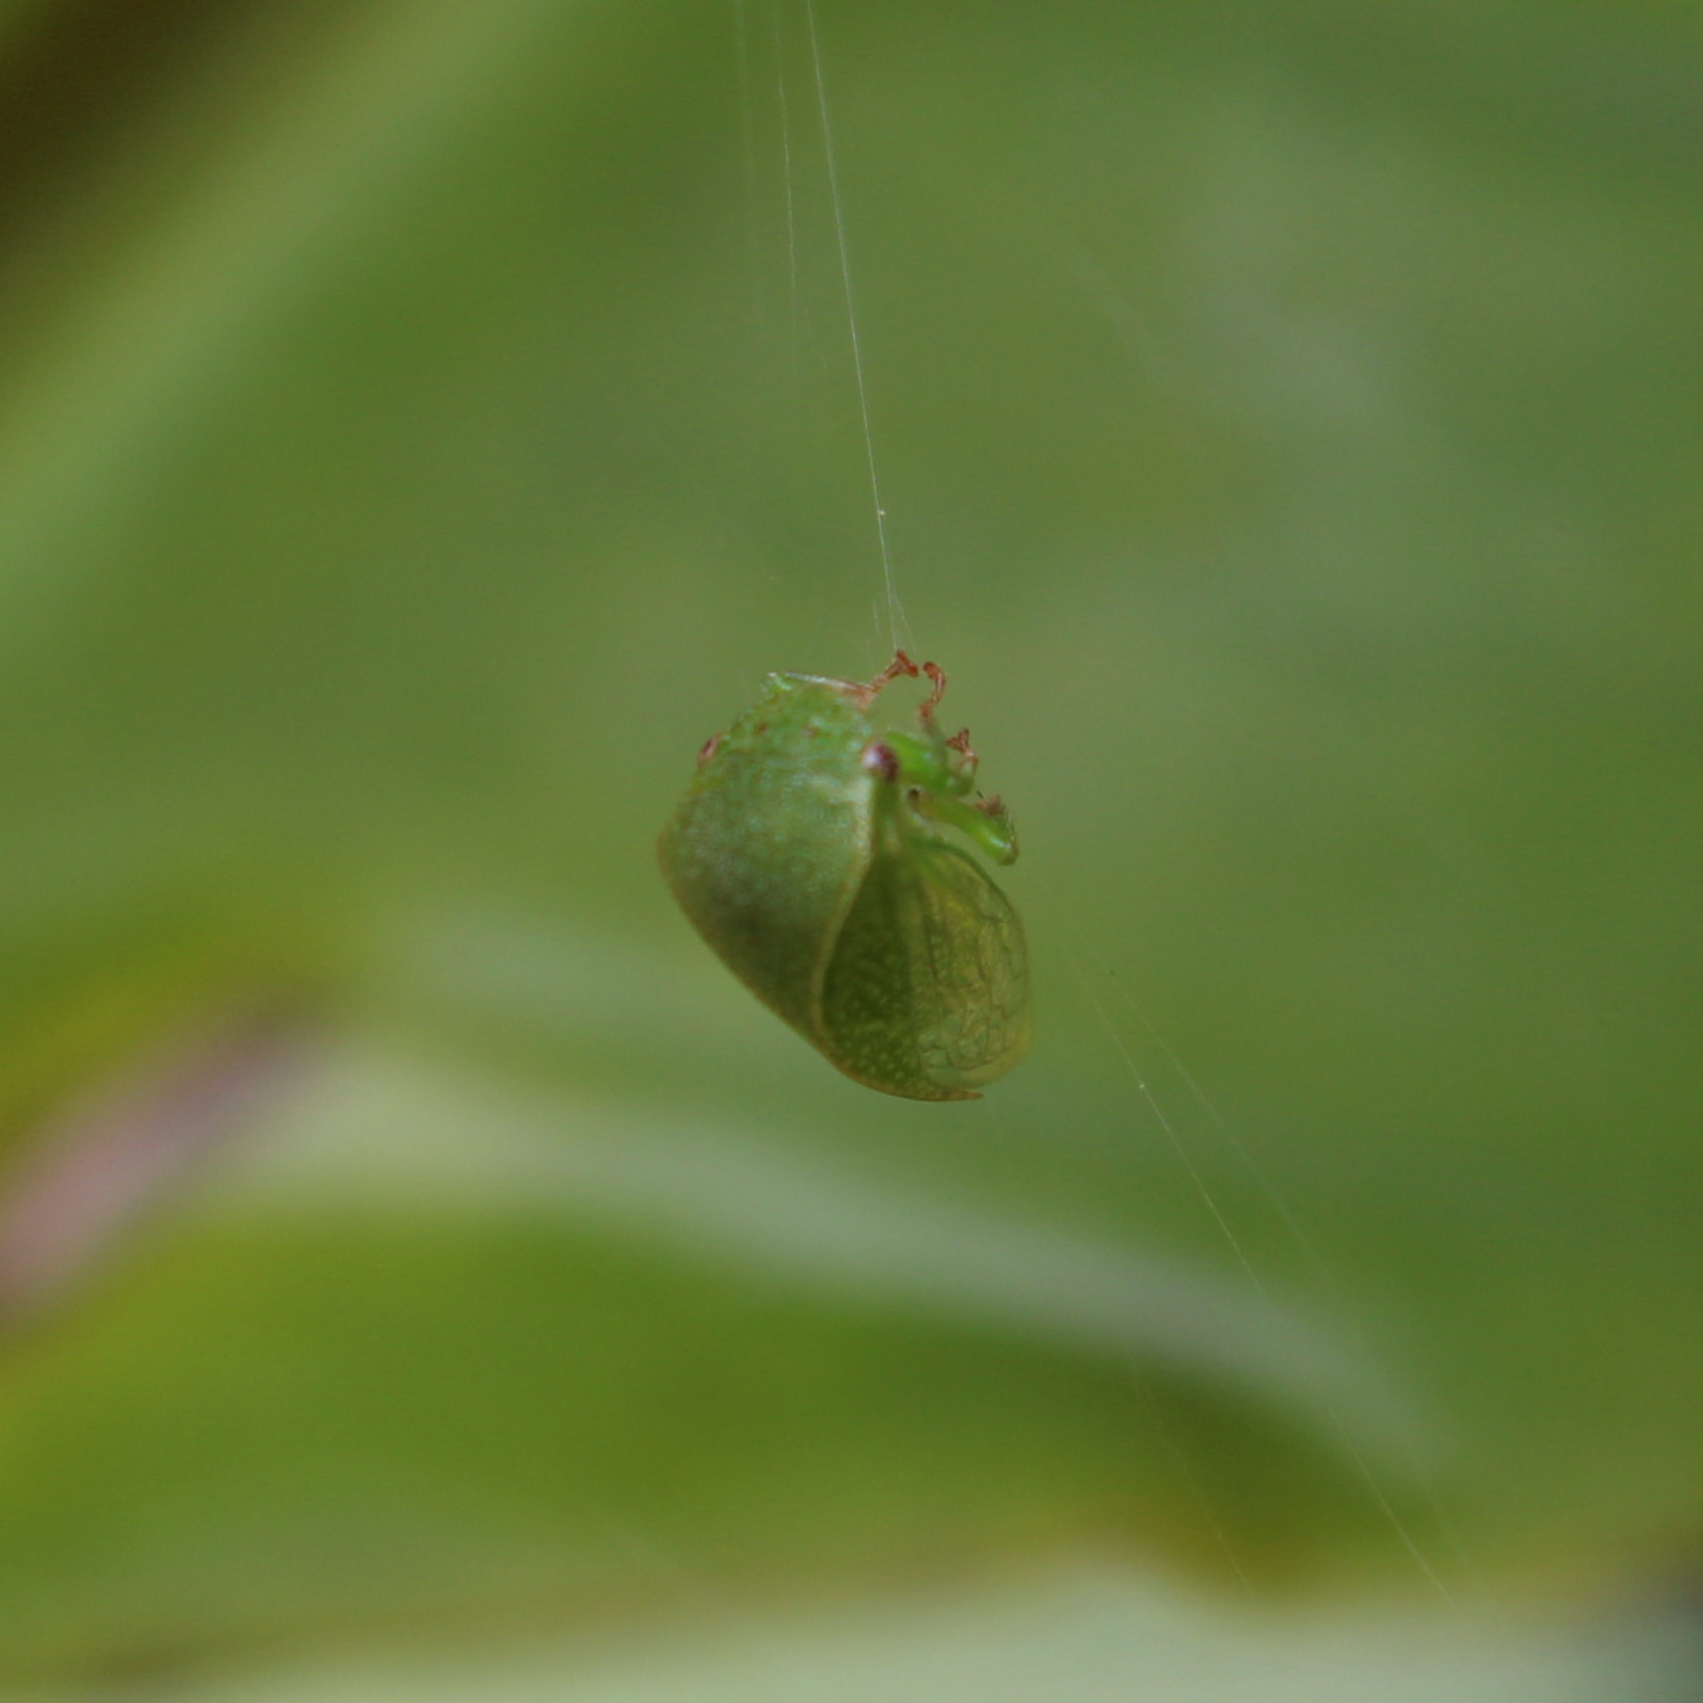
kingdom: Animalia
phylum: Arthropoda
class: Insecta
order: Hemiptera
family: Membracidae
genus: Spissistilus
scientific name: Spissistilus festina
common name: Membracid bug
